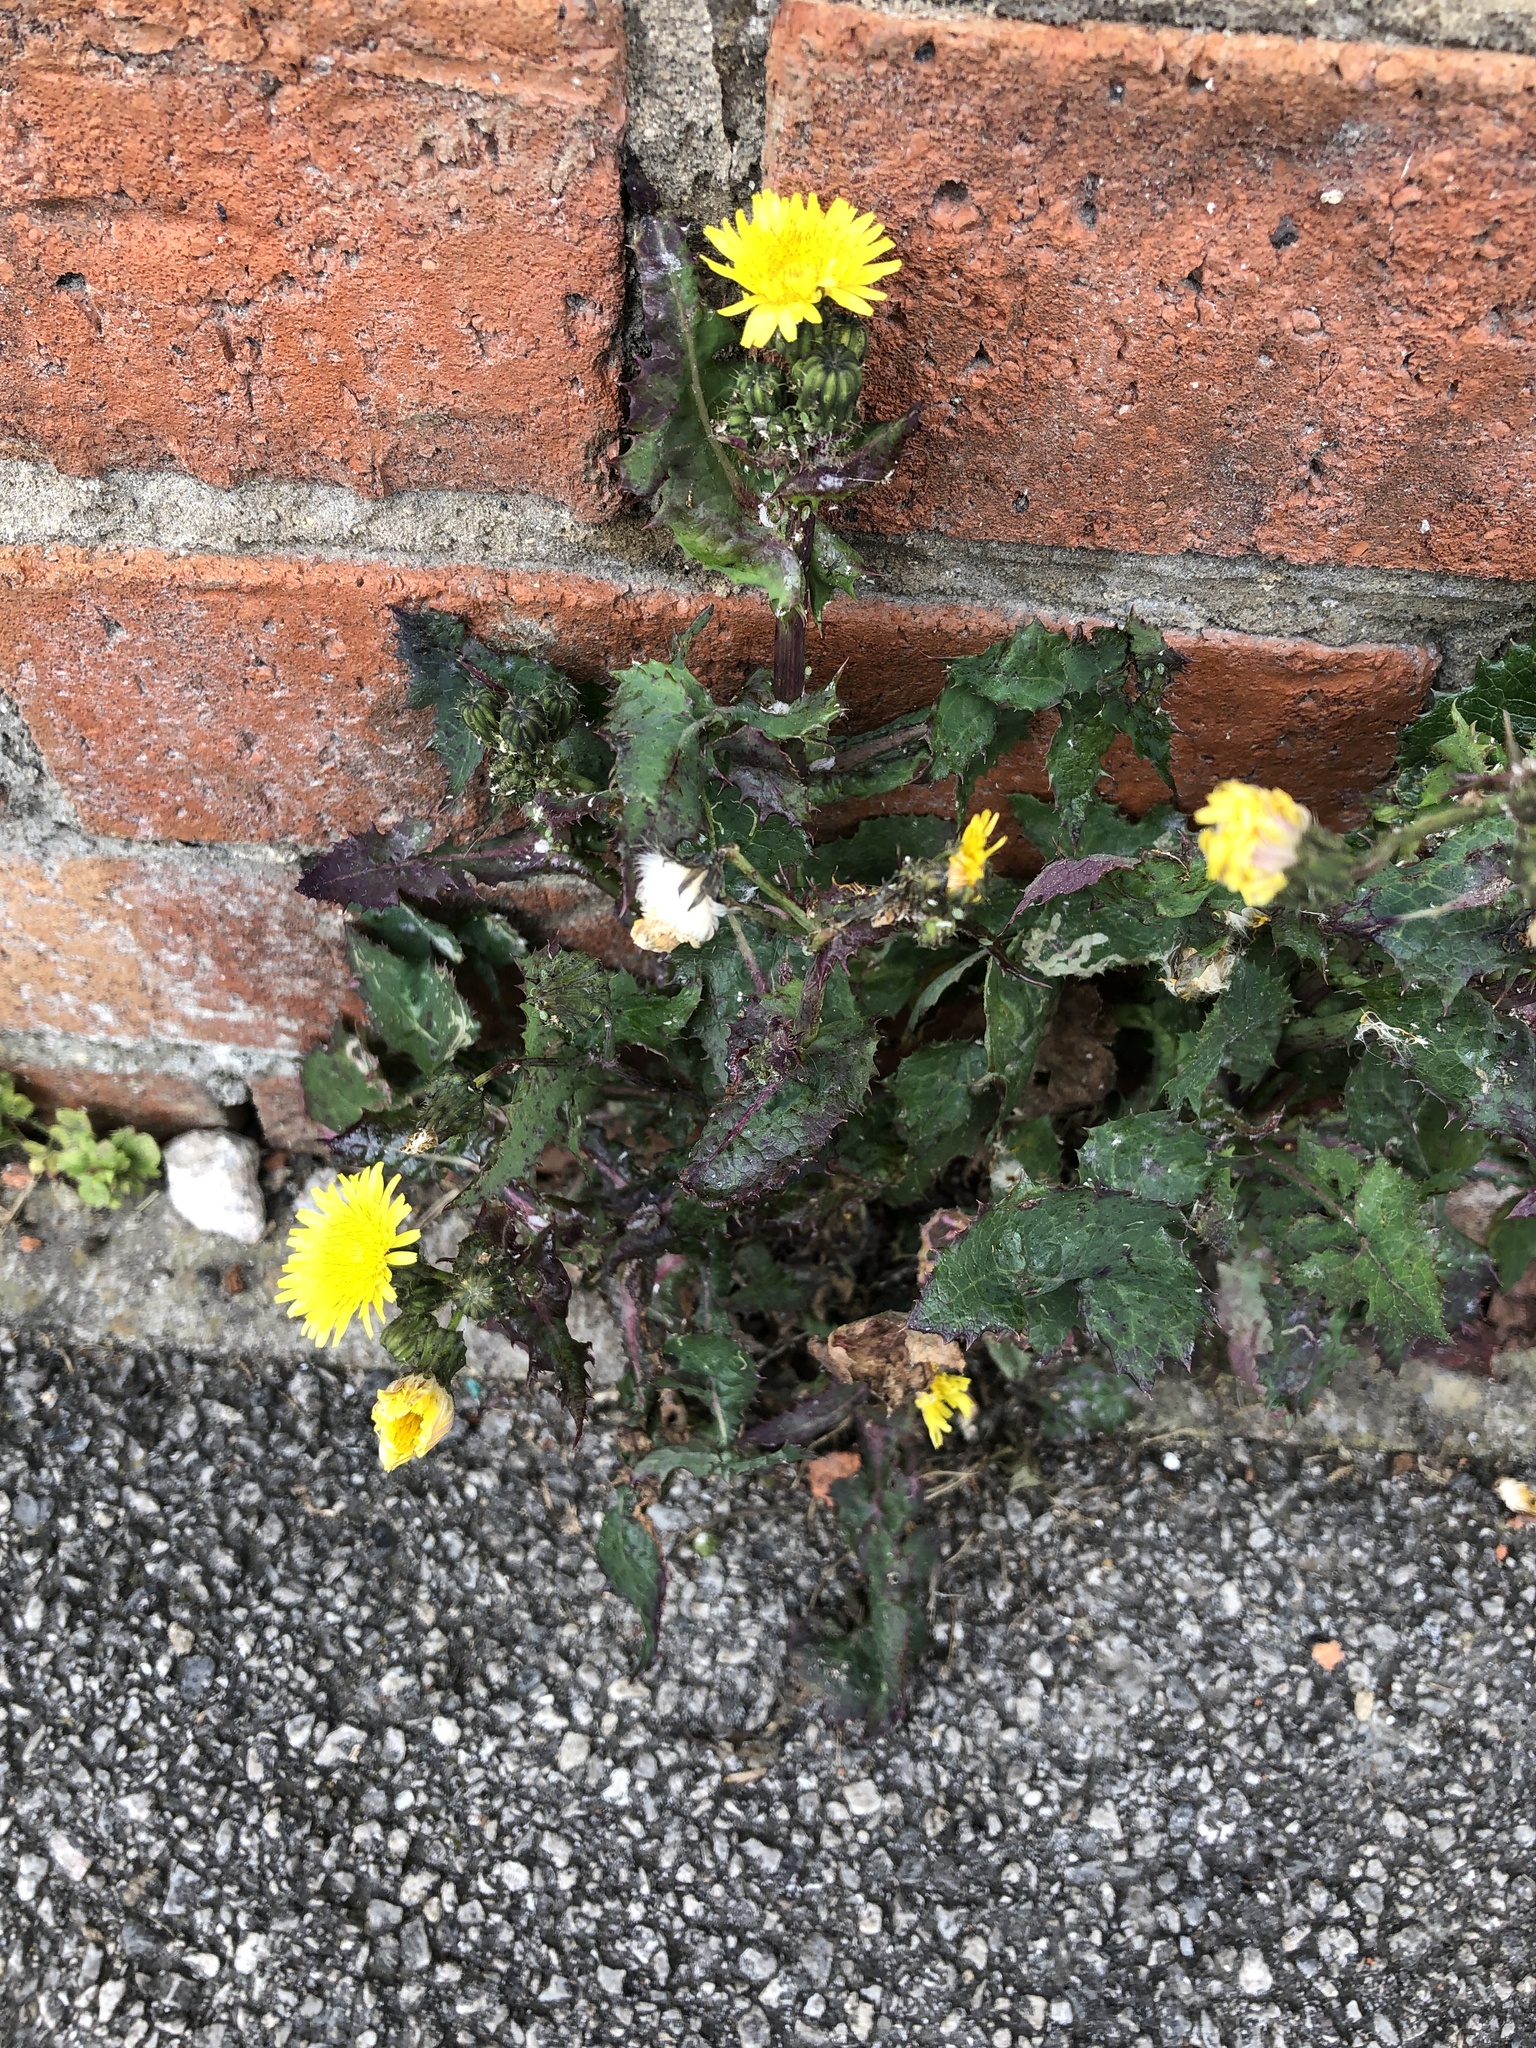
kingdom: Plantae
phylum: Tracheophyta
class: Magnoliopsida
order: Asterales
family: Asteraceae
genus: Sonchus
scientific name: Sonchus oleraceus
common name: Common sowthistle
